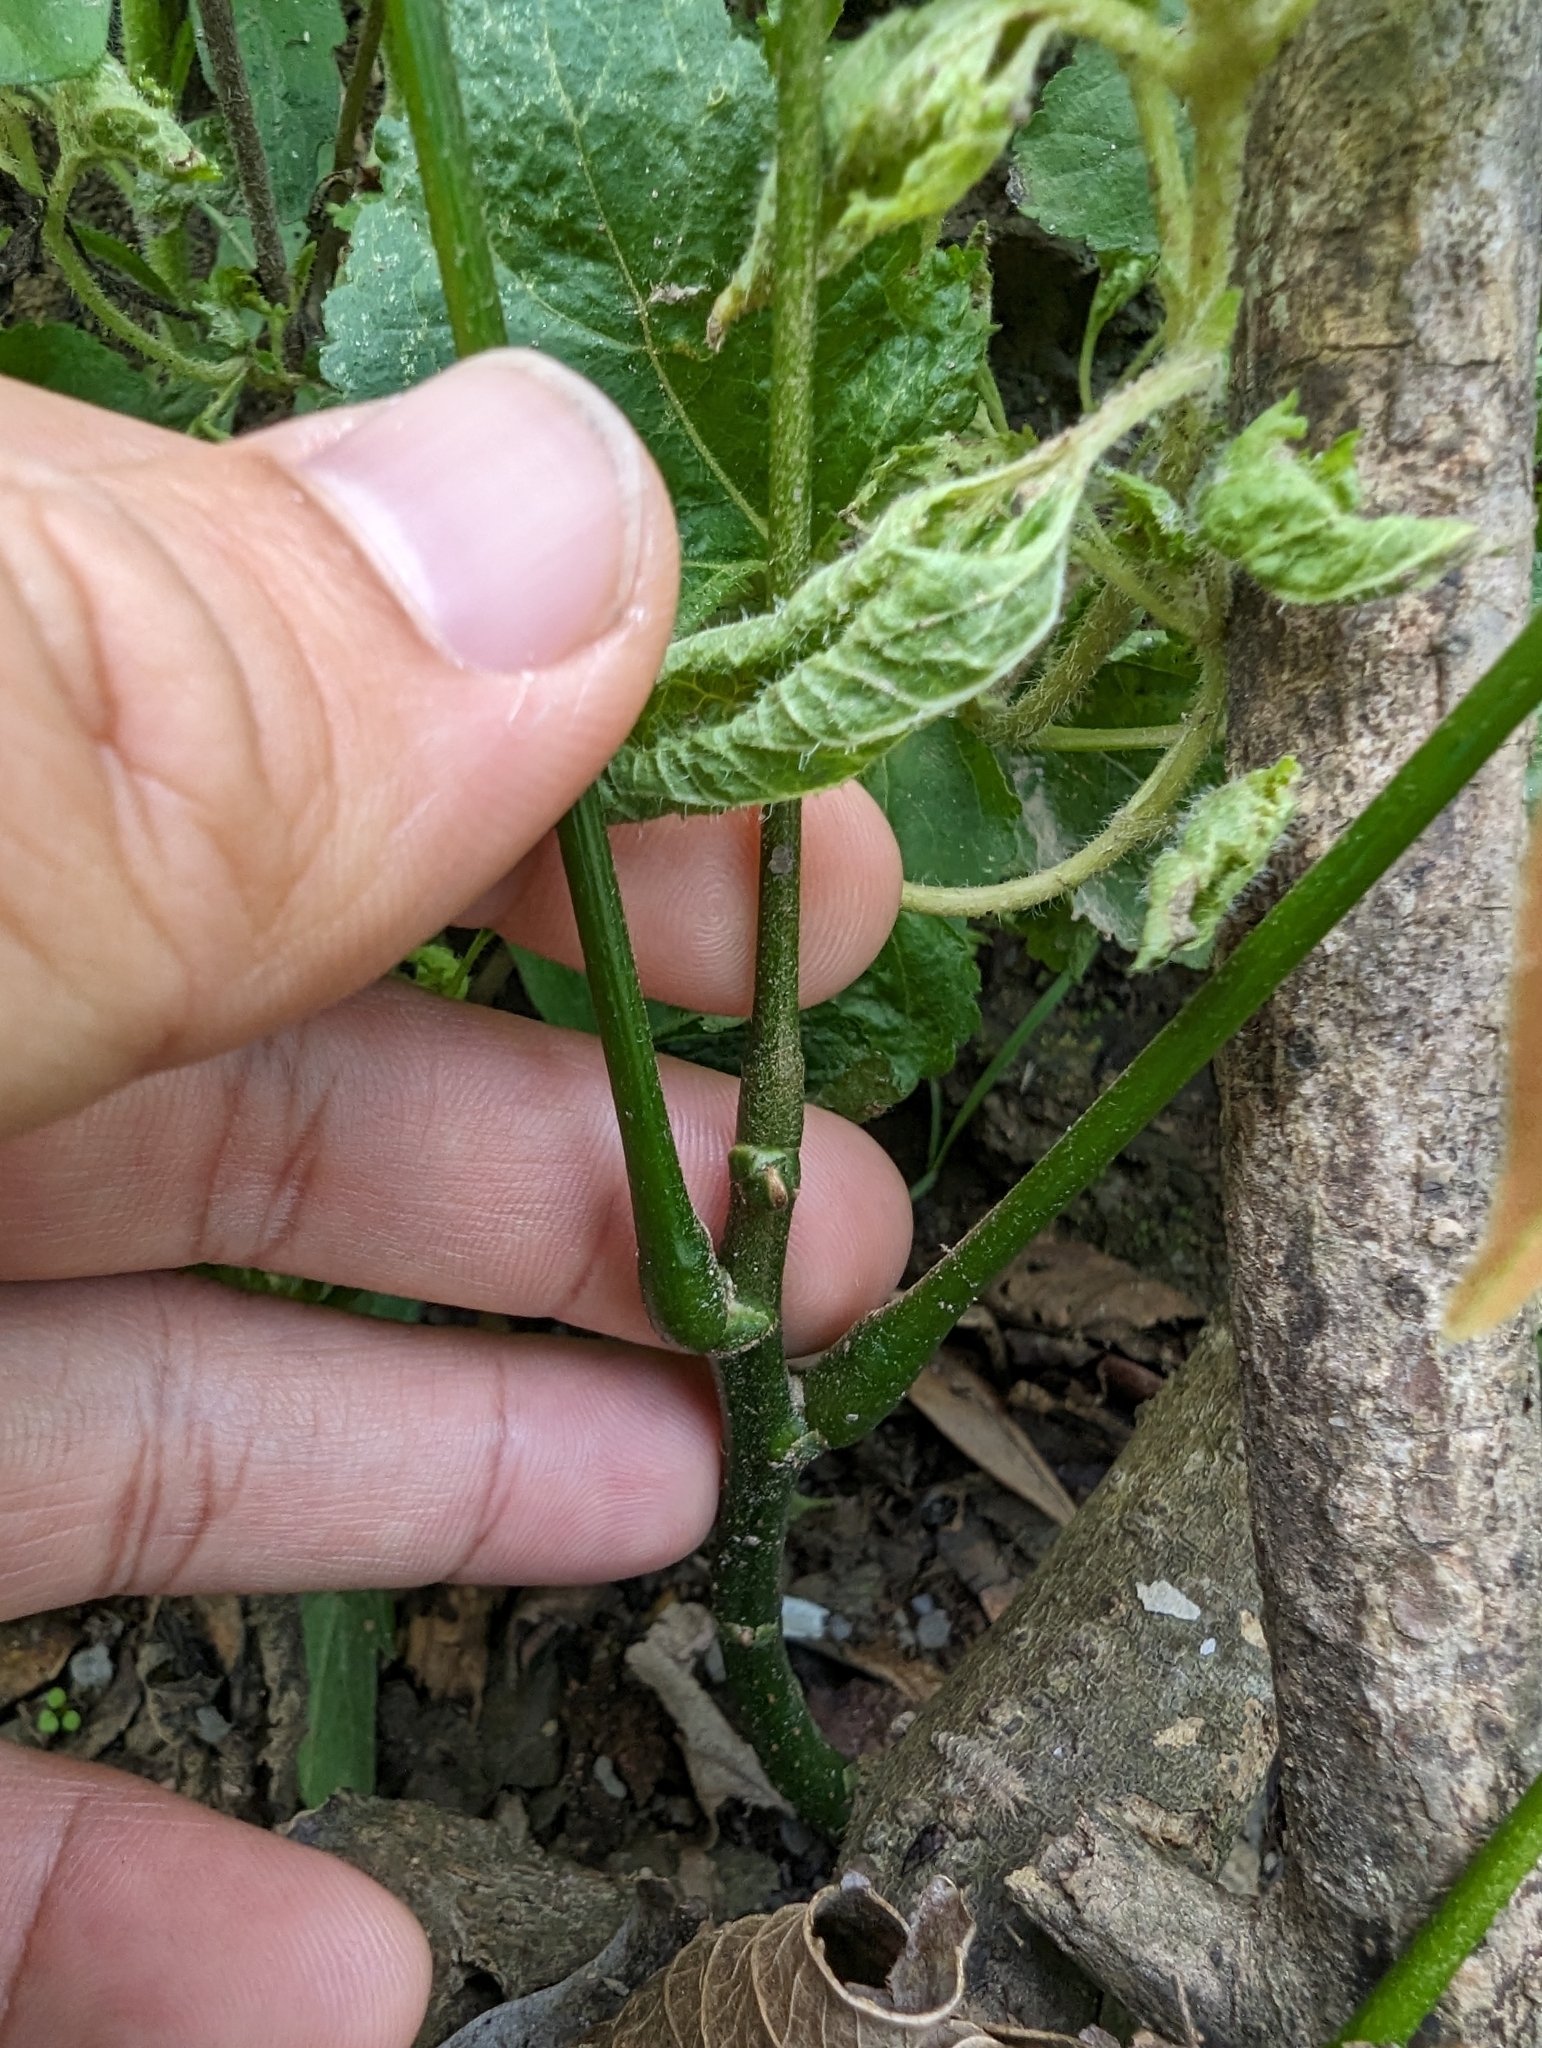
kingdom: Plantae
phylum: Tracheophyta
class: Magnoliopsida
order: Fabales
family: Fabaceae
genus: Millettia
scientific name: Millettia pachycarpa
